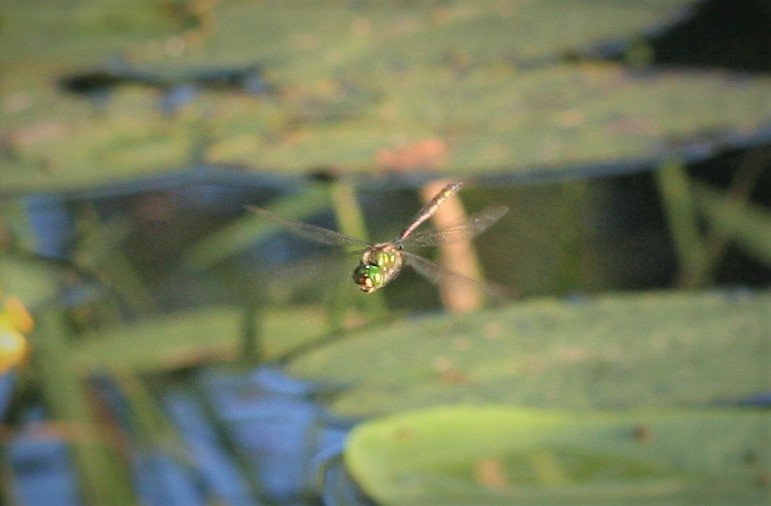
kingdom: Animalia
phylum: Arthropoda
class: Insecta
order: Odonata
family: Corduliidae
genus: Somatochlora
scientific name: Somatochlora metallica
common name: Brilliant emerald
